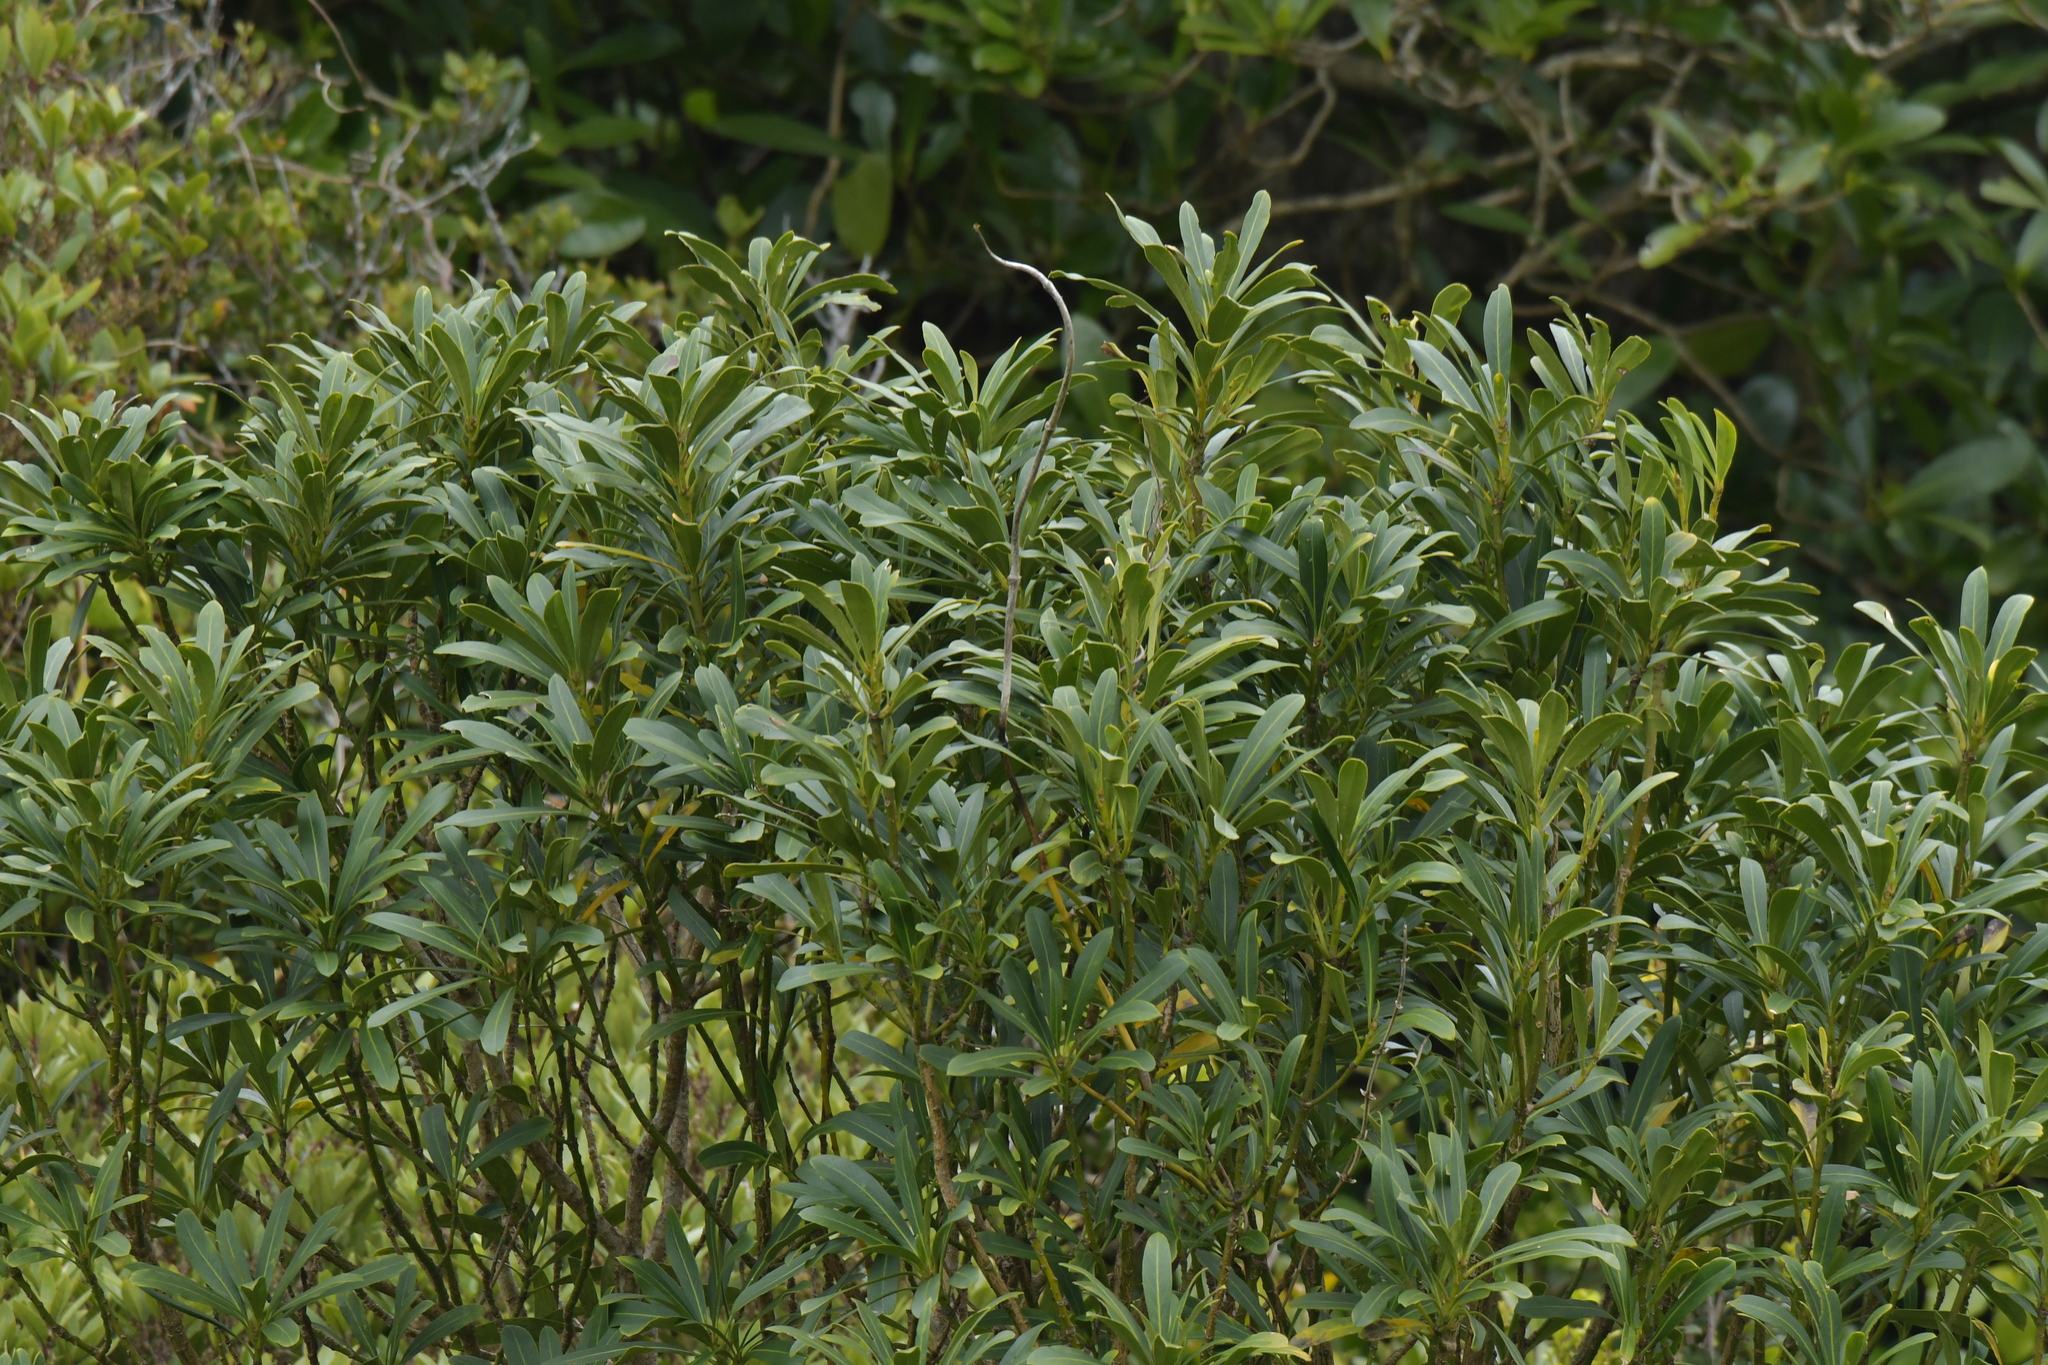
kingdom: Plantae
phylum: Tracheophyta
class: Magnoliopsida
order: Apiales
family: Araliaceae
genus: Pseudopanax
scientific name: Pseudopanax chathamicus
